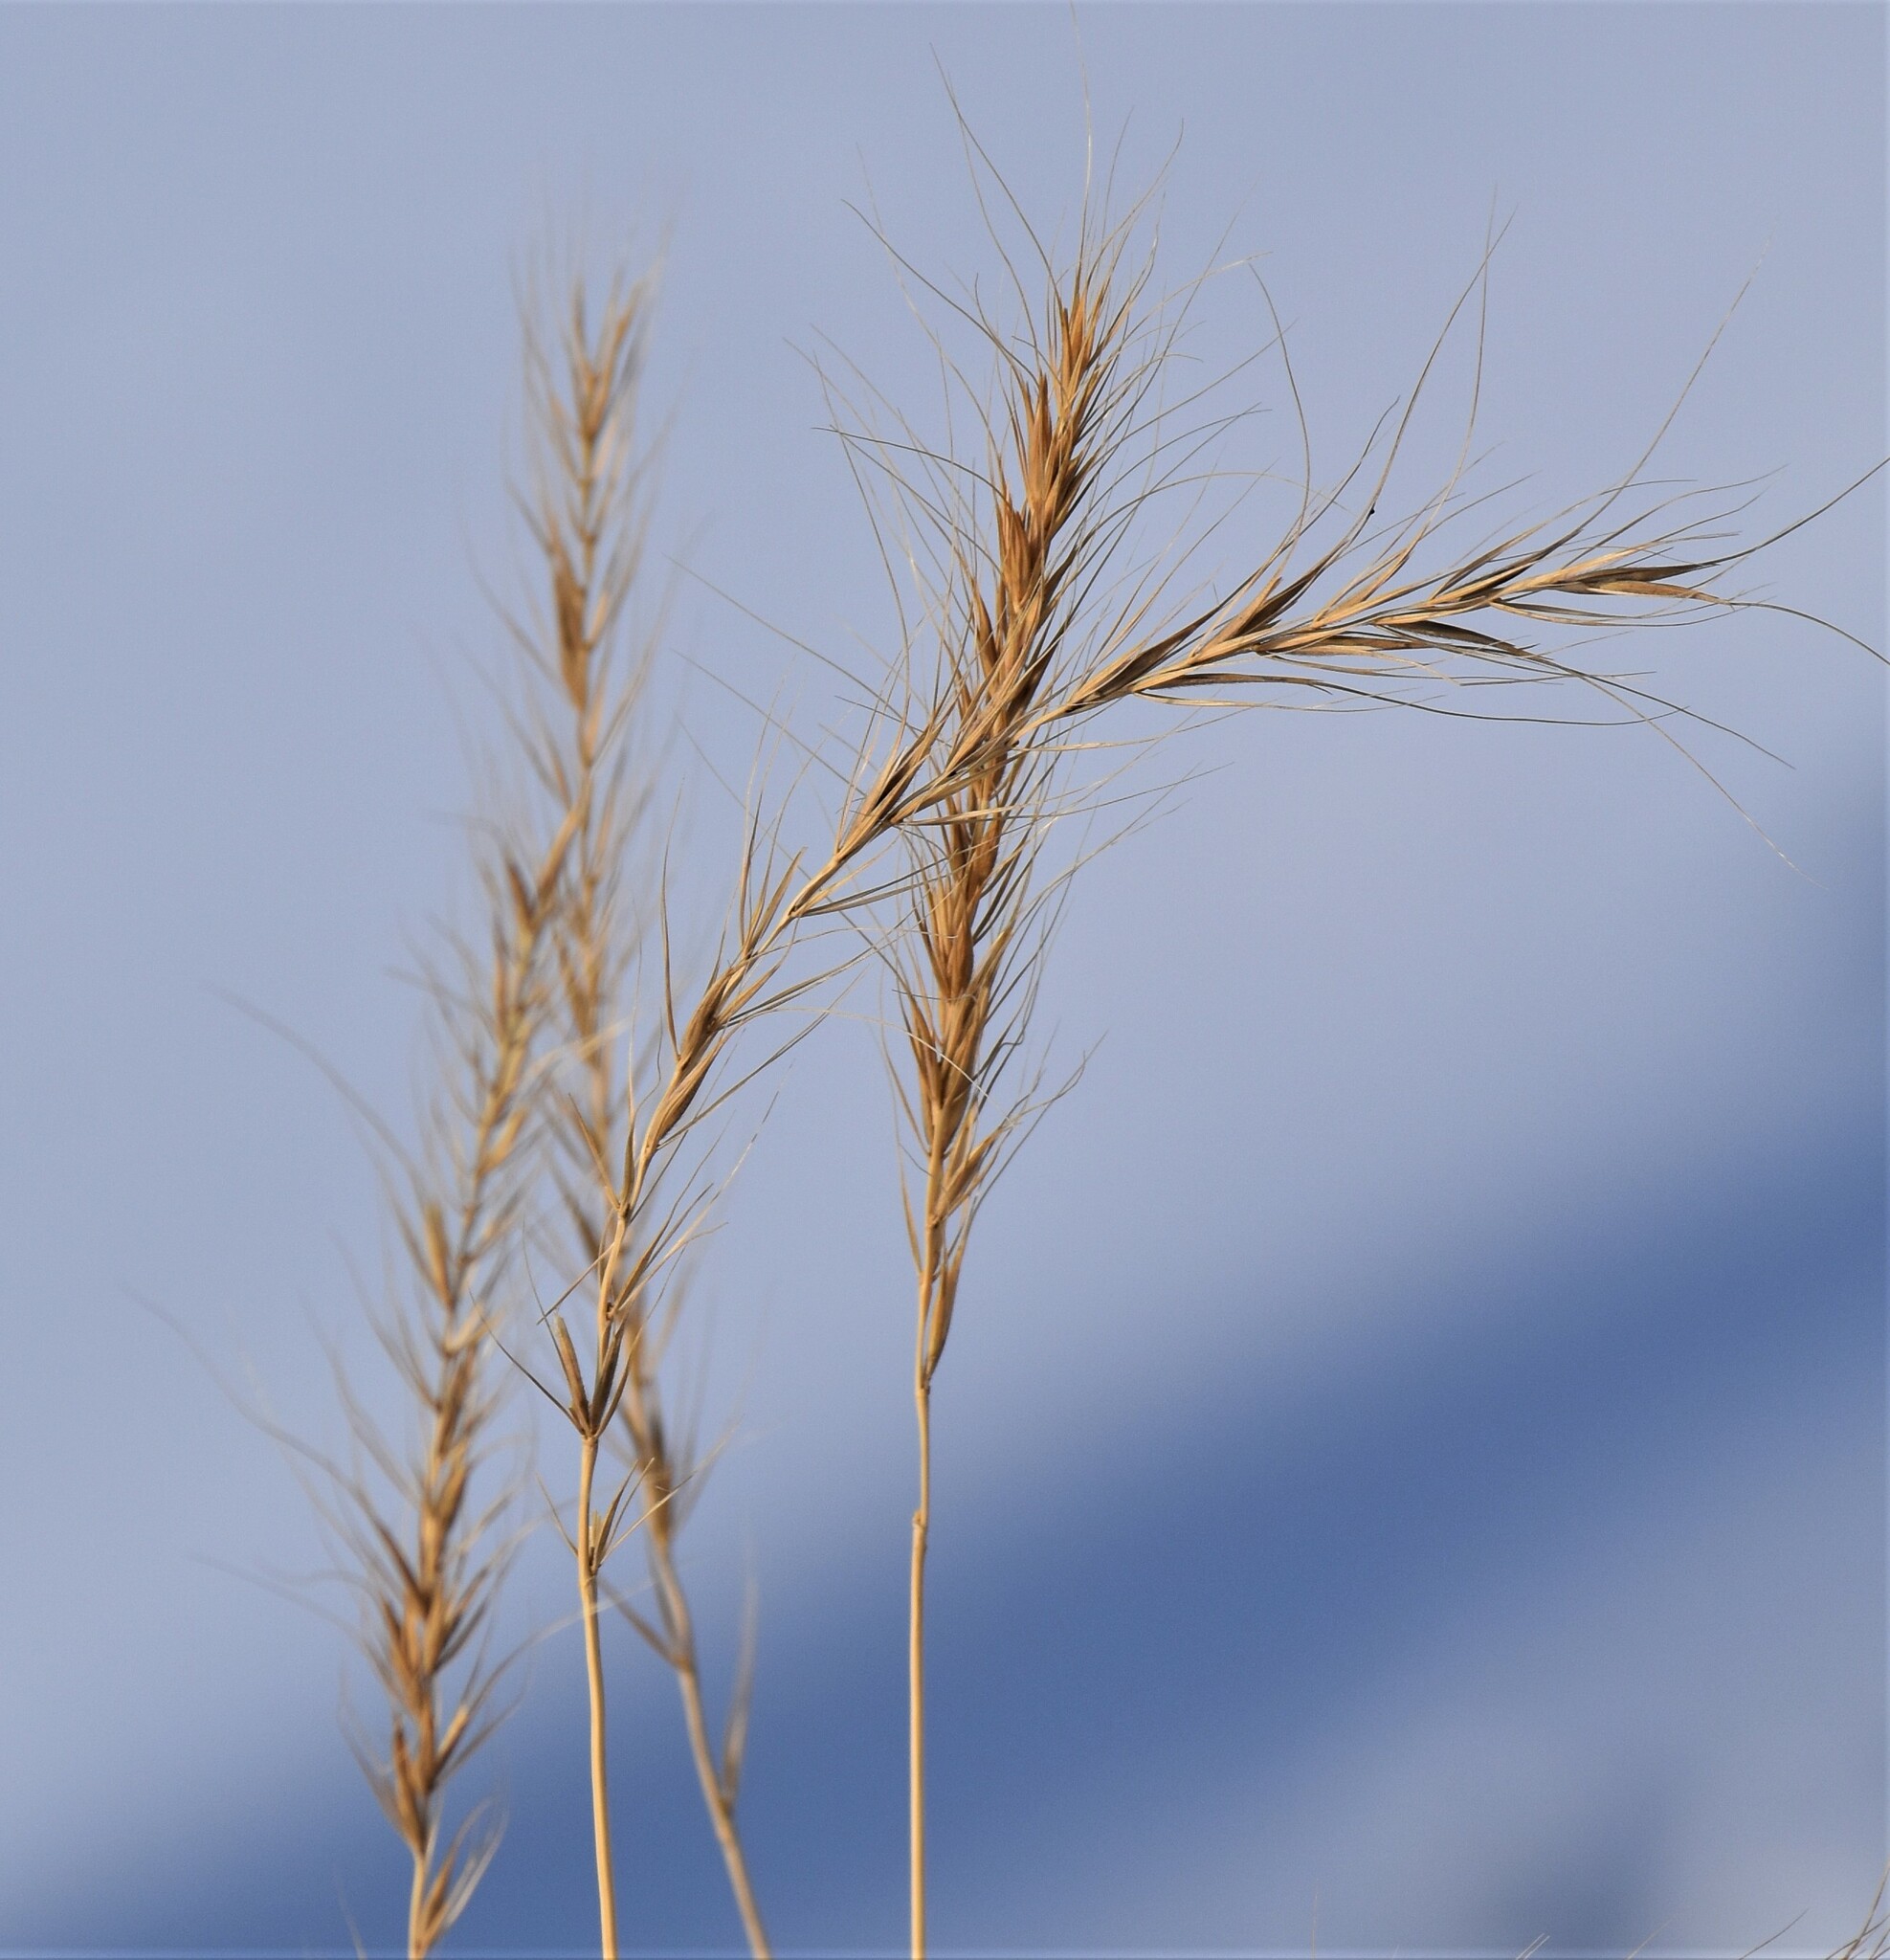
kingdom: Plantae
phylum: Tracheophyta
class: Liliopsida
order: Poales
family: Poaceae
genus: Elymus
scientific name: Elymus canadensis
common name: Canada wild rye
